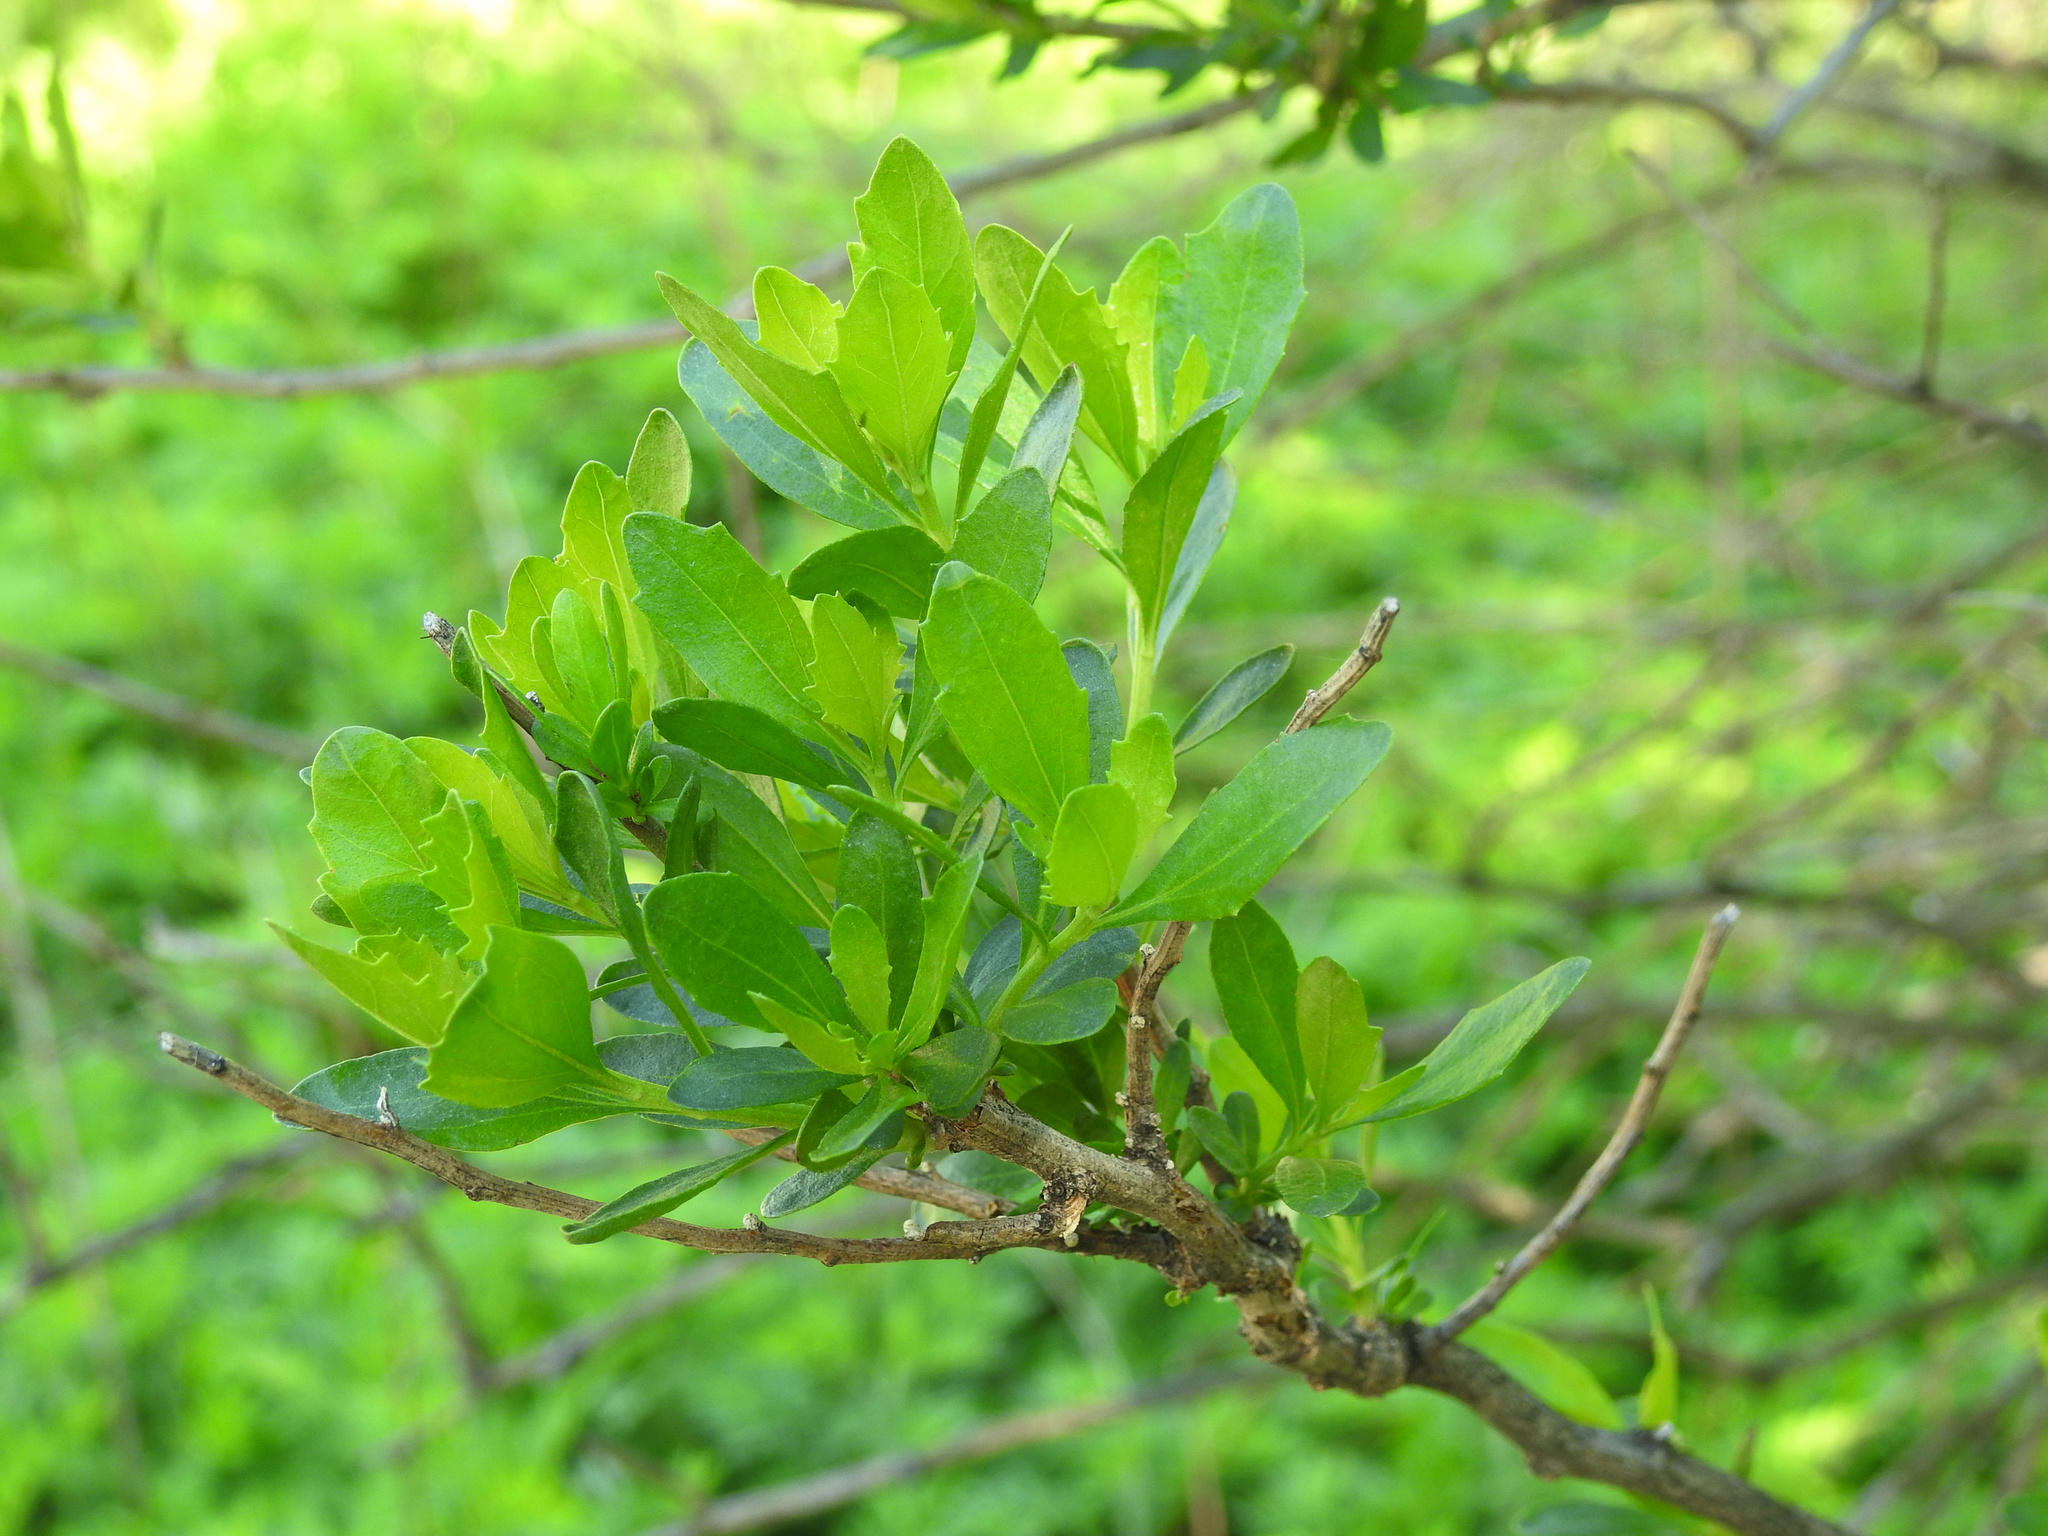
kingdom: Plantae
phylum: Tracheophyta
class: Magnoliopsida
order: Asterales
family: Asteraceae
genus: Baccharis
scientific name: Baccharis halimifolia
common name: Eastern baccharis
